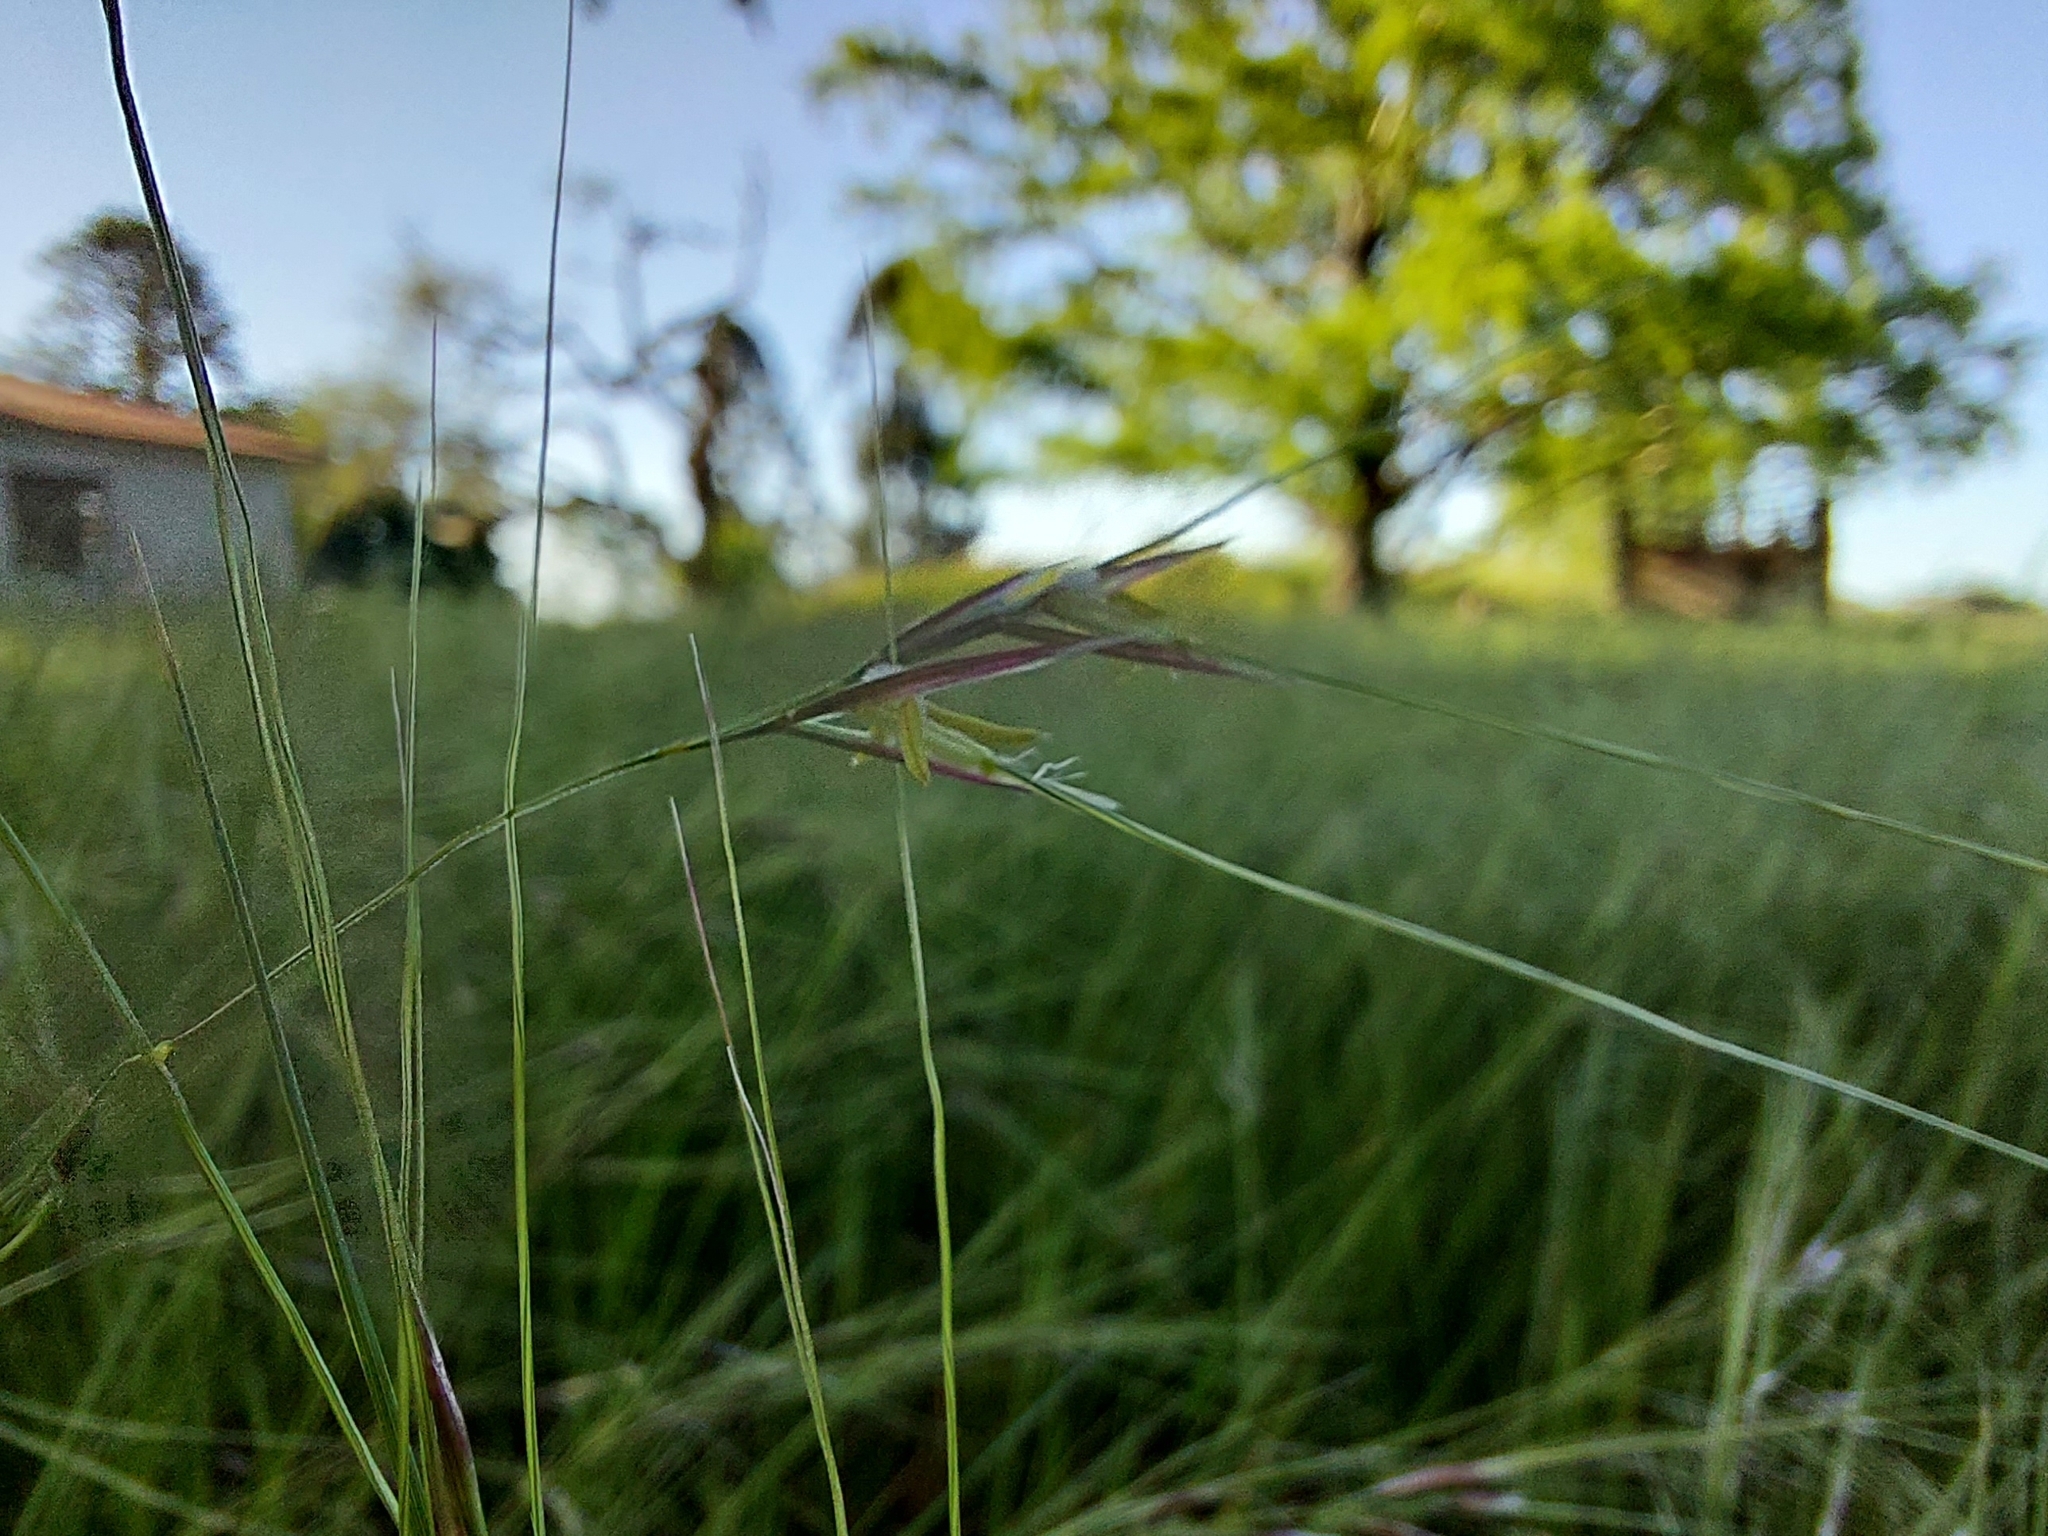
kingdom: Plantae
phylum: Tracheophyta
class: Liliopsida
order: Poales
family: Poaceae
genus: Nassella
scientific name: Nassella neesiana
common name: American needle-grass
